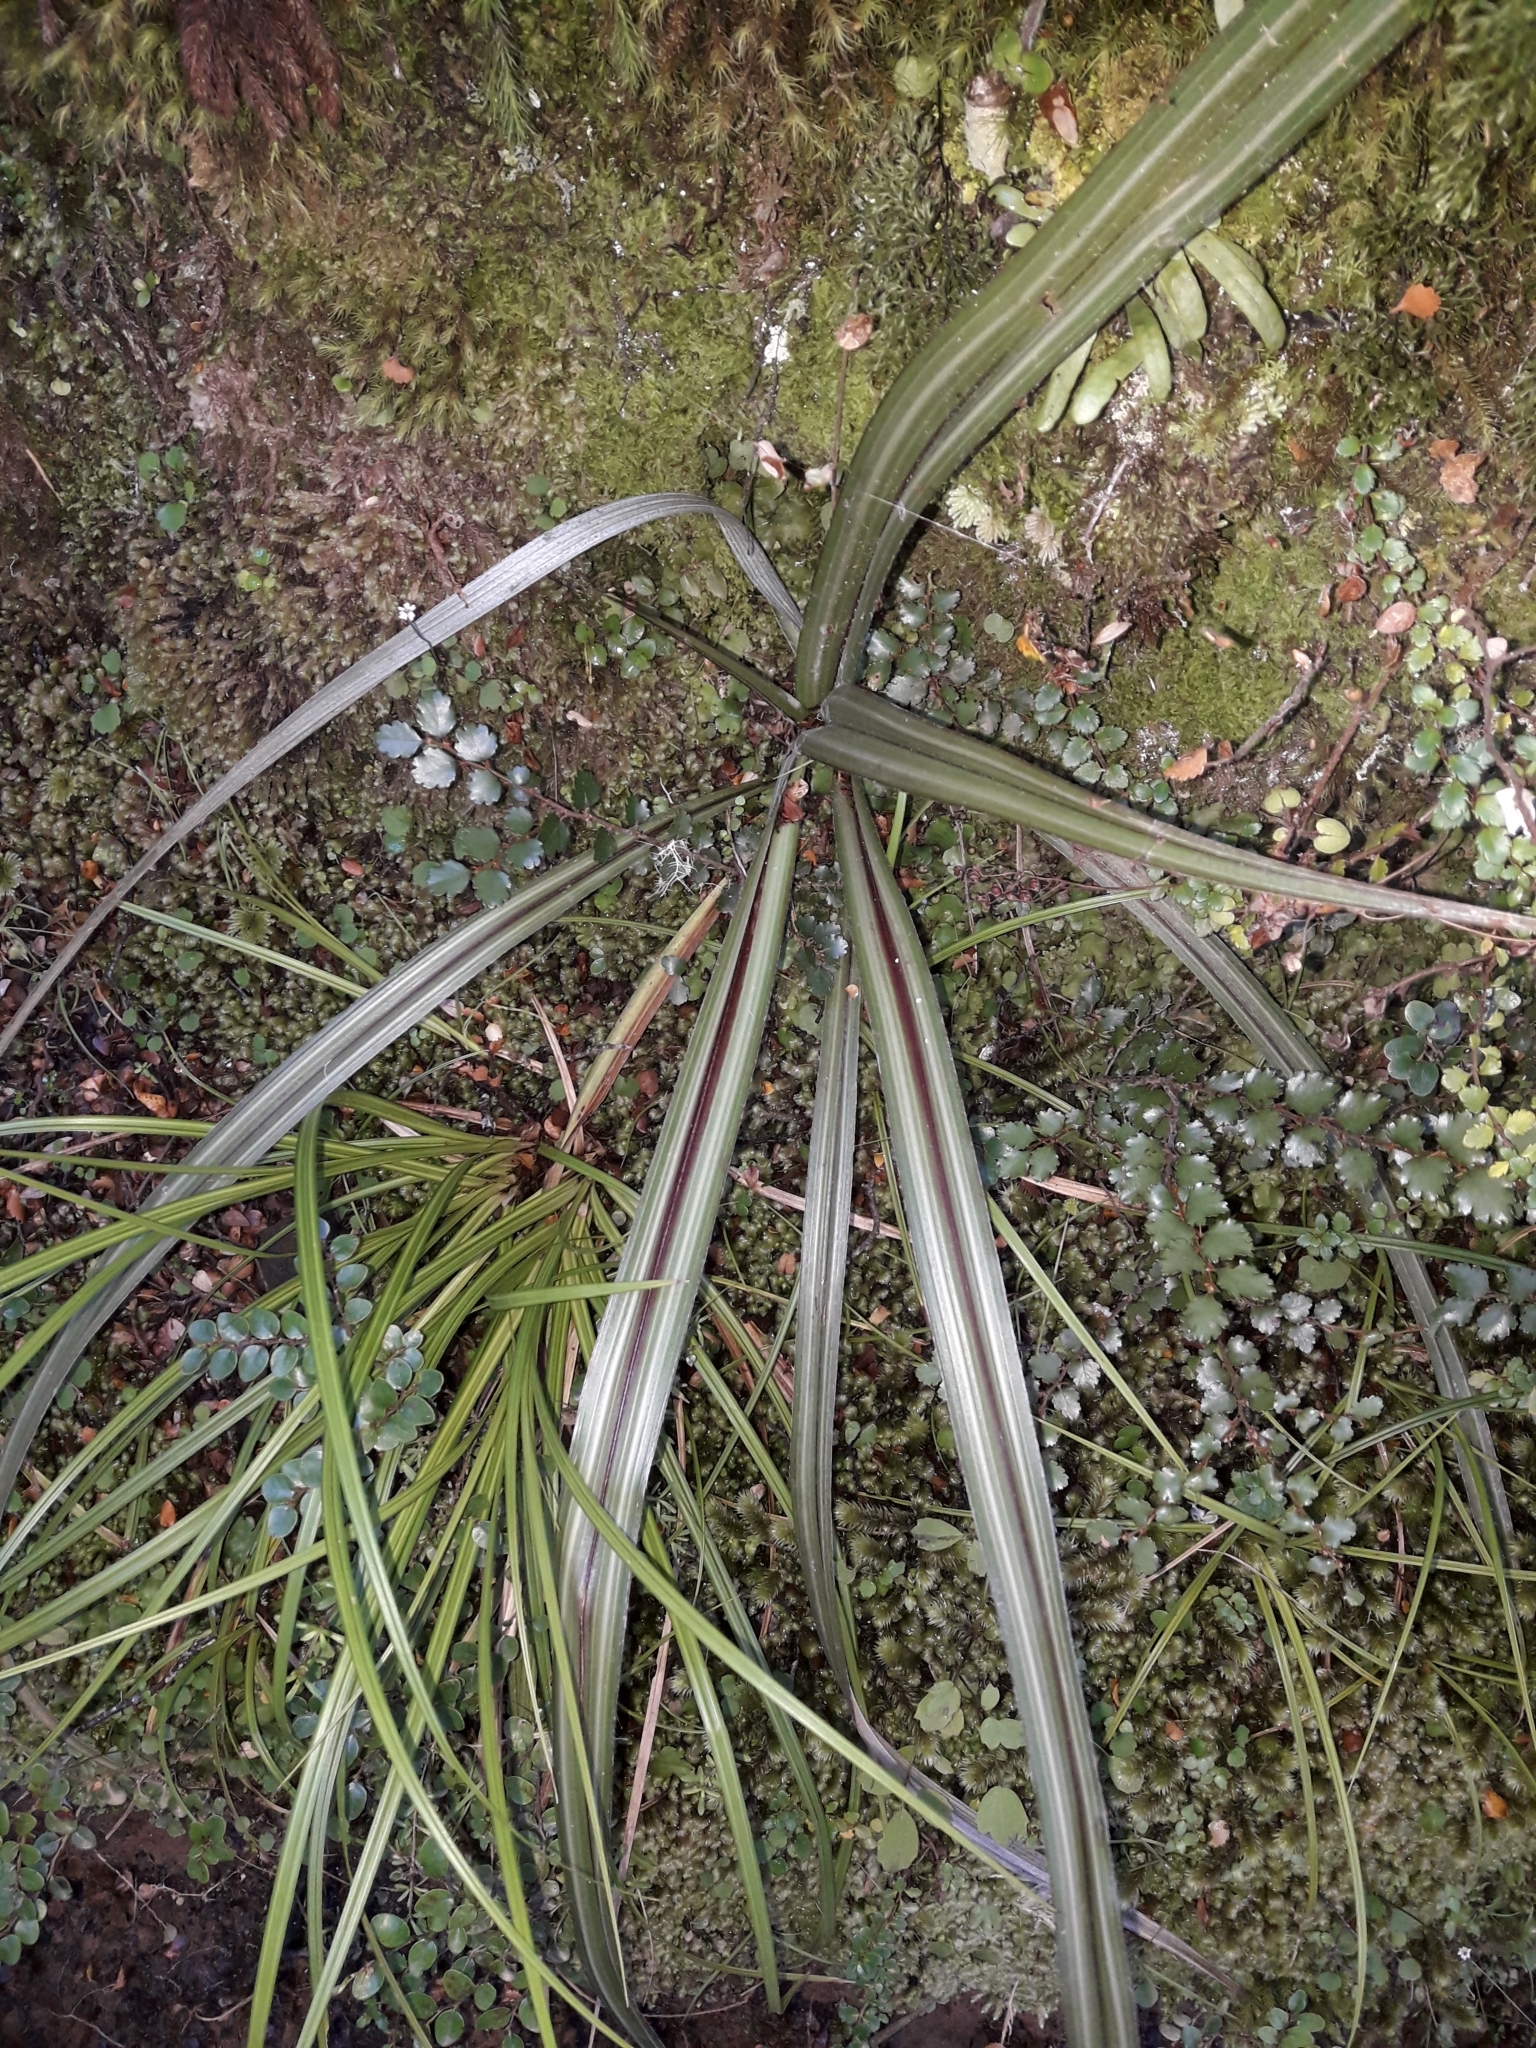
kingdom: Plantae
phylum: Tracheophyta
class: Liliopsida
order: Asparagales
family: Asteliaceae
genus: Astelia
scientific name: Astelia nervosa
